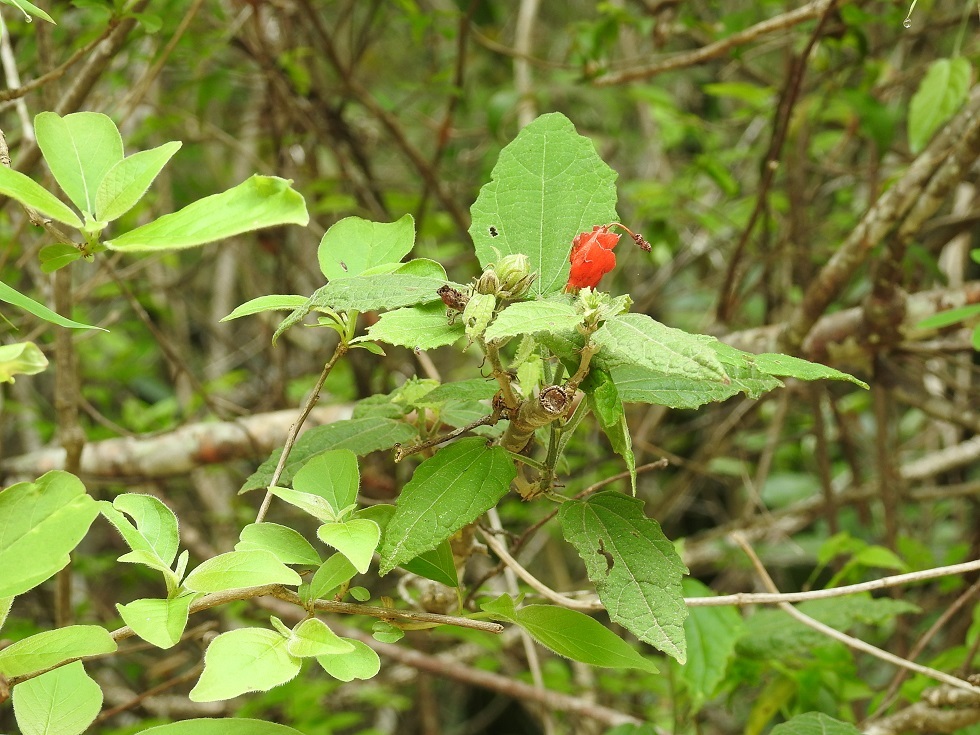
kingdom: Plantae
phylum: Tracheophyta
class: Magnoliopsida
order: Malvales
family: Malvaceae
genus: Malvaviscus
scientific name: Malvaviscus arboreus
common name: Wax mallow
